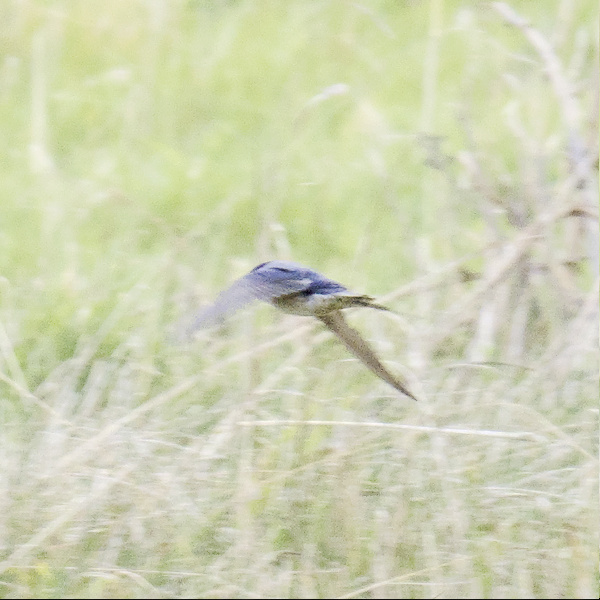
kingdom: Animalia
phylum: Chordata
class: Aves
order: Passeriformes
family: Hirundinidae
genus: Hirundo
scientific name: Hirundo neoxena
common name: Welcome swallow
